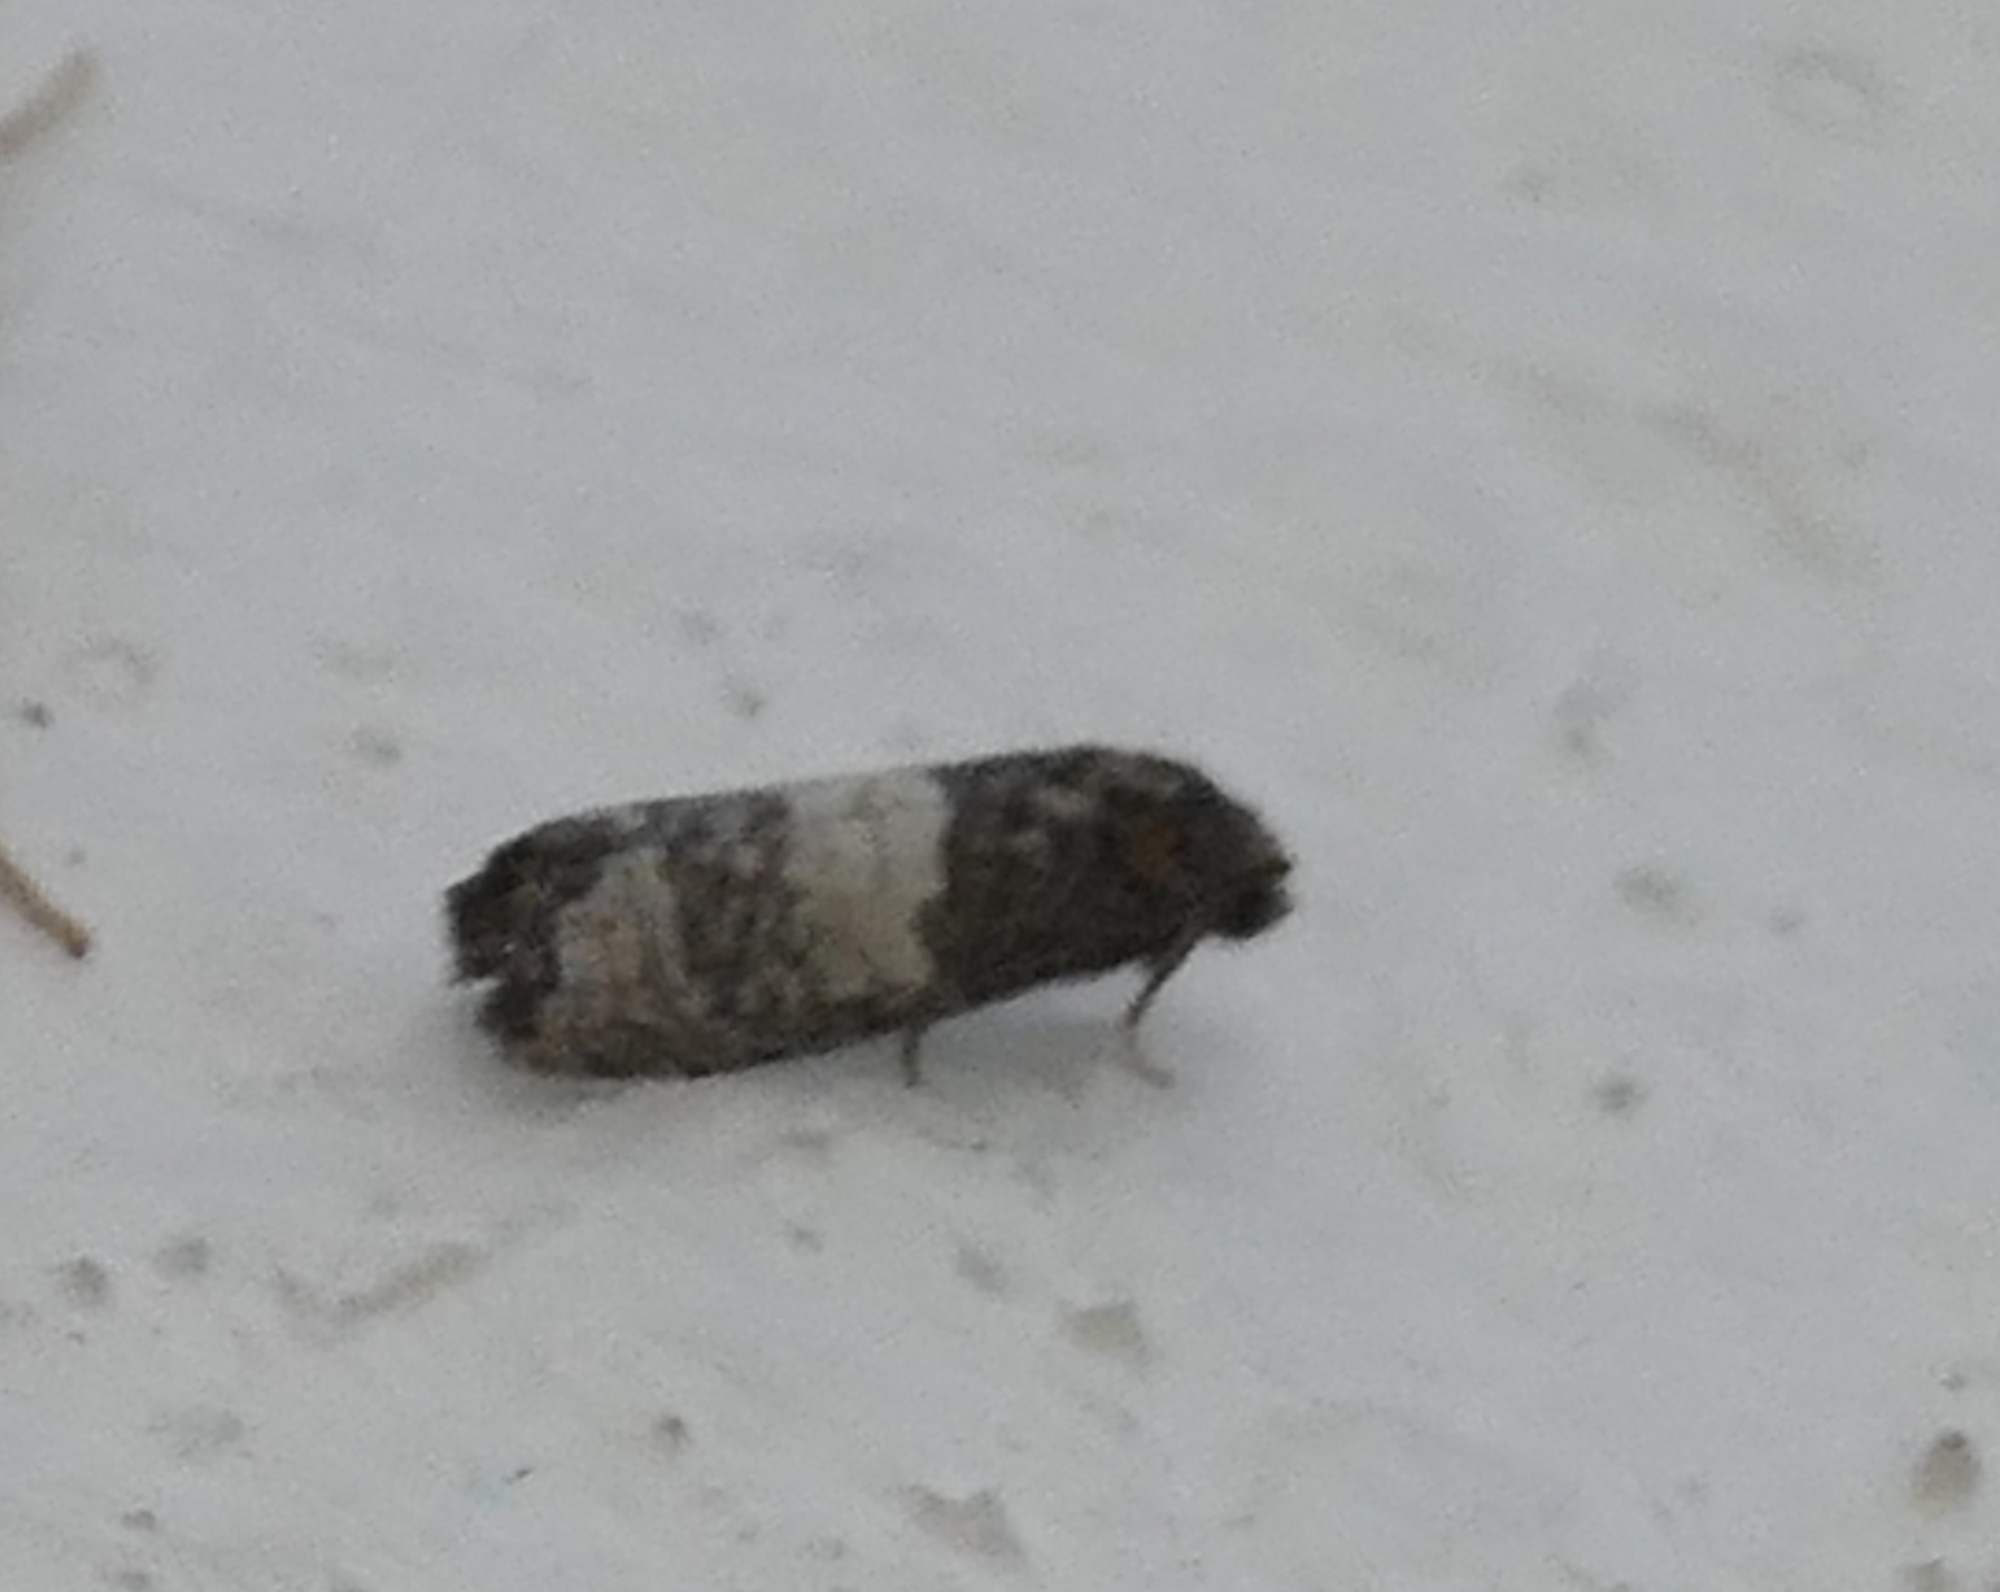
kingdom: Animalia
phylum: Arthropoda
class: Insecta
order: Lepidoptera
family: Tortricidae
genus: Epiblema
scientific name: Epiblema discretivana
